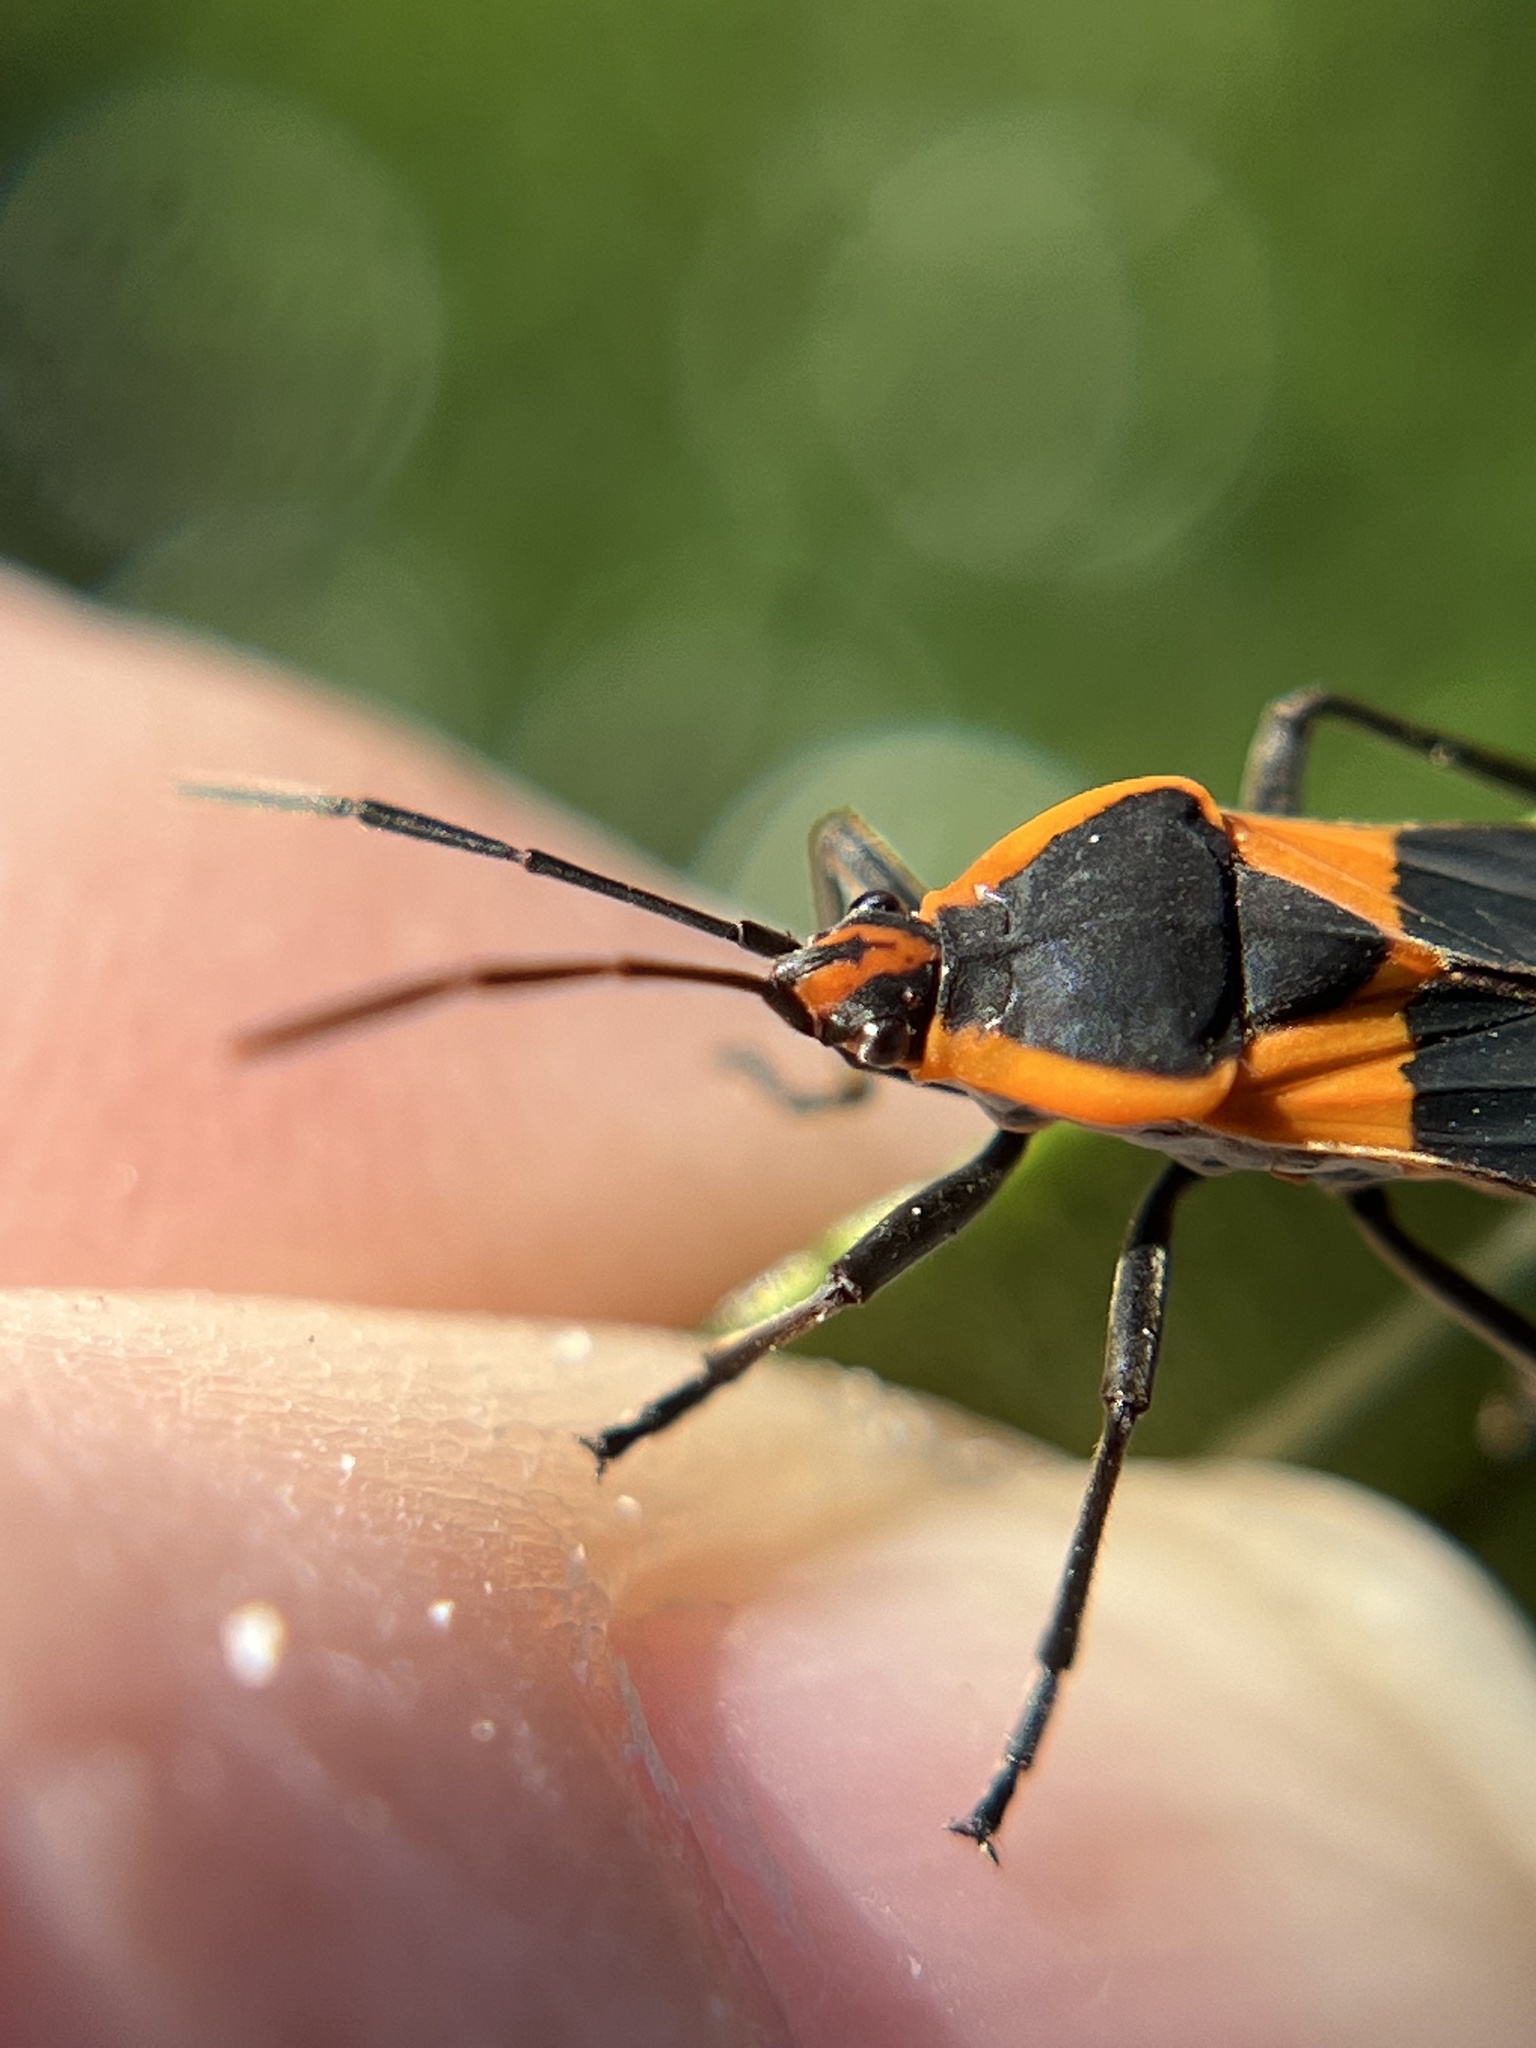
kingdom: Animalia
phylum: Arthropoda
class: Insecta
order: Hemiptera
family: Lygaeidae
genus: Oncopeltus
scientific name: Oncopeltus fasciatus
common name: Large milkweed bug
